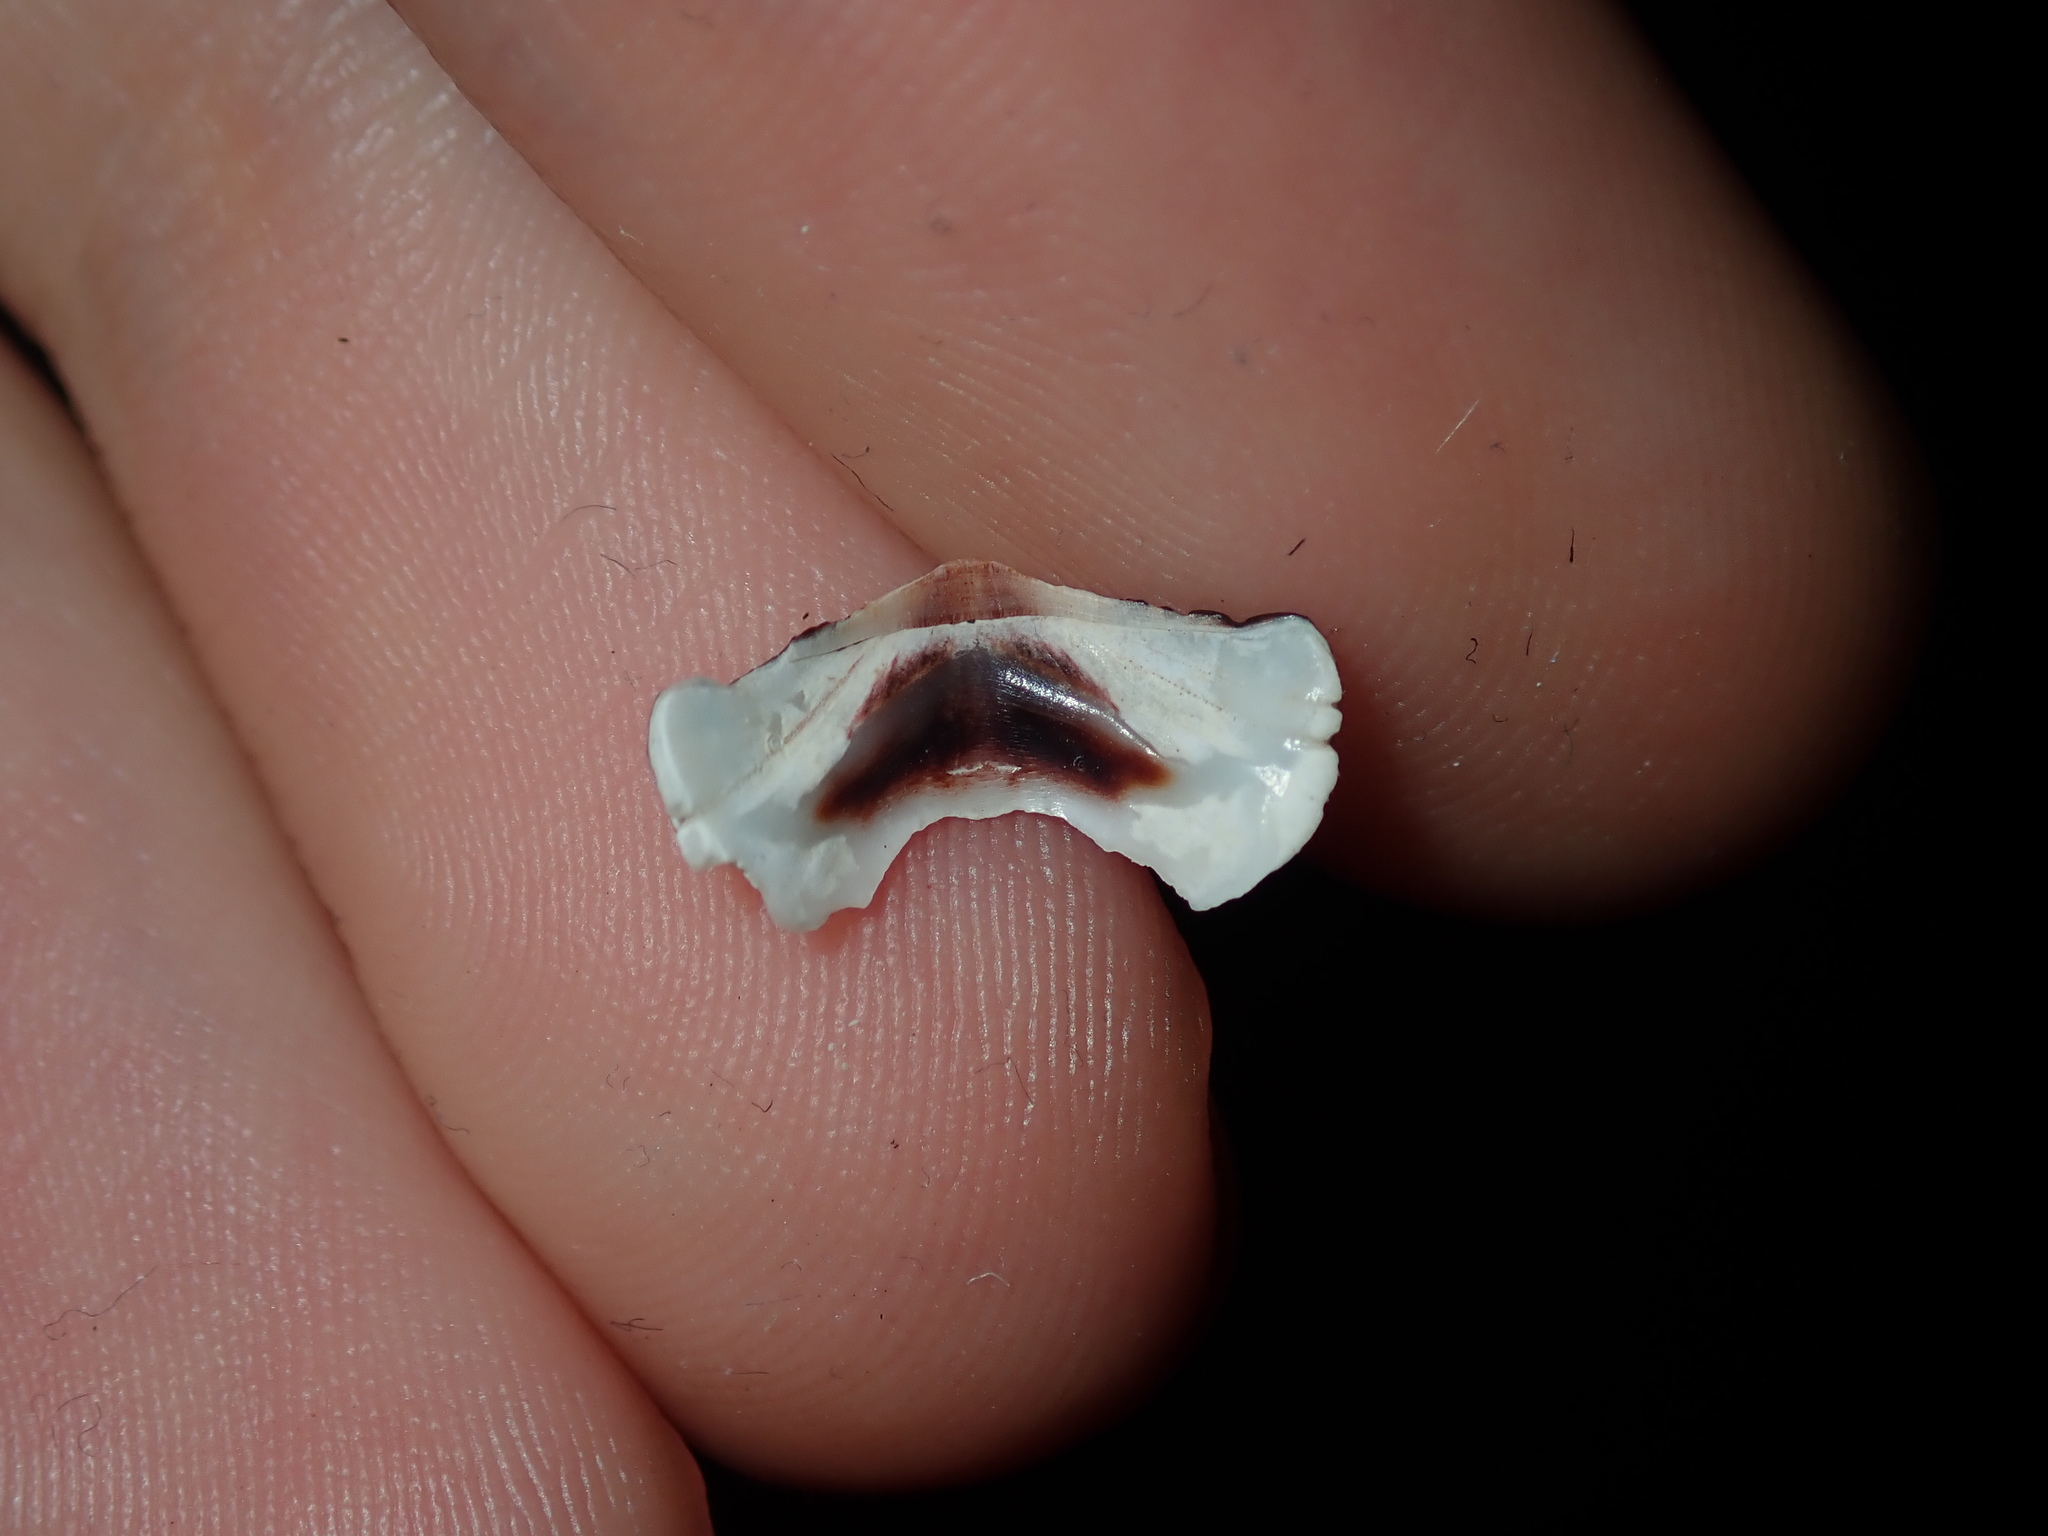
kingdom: Animalia
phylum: Mollusca
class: Polyplacophora
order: Chitonida
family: Chitonidae
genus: Onithochiton
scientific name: Onithochiton quercinus
